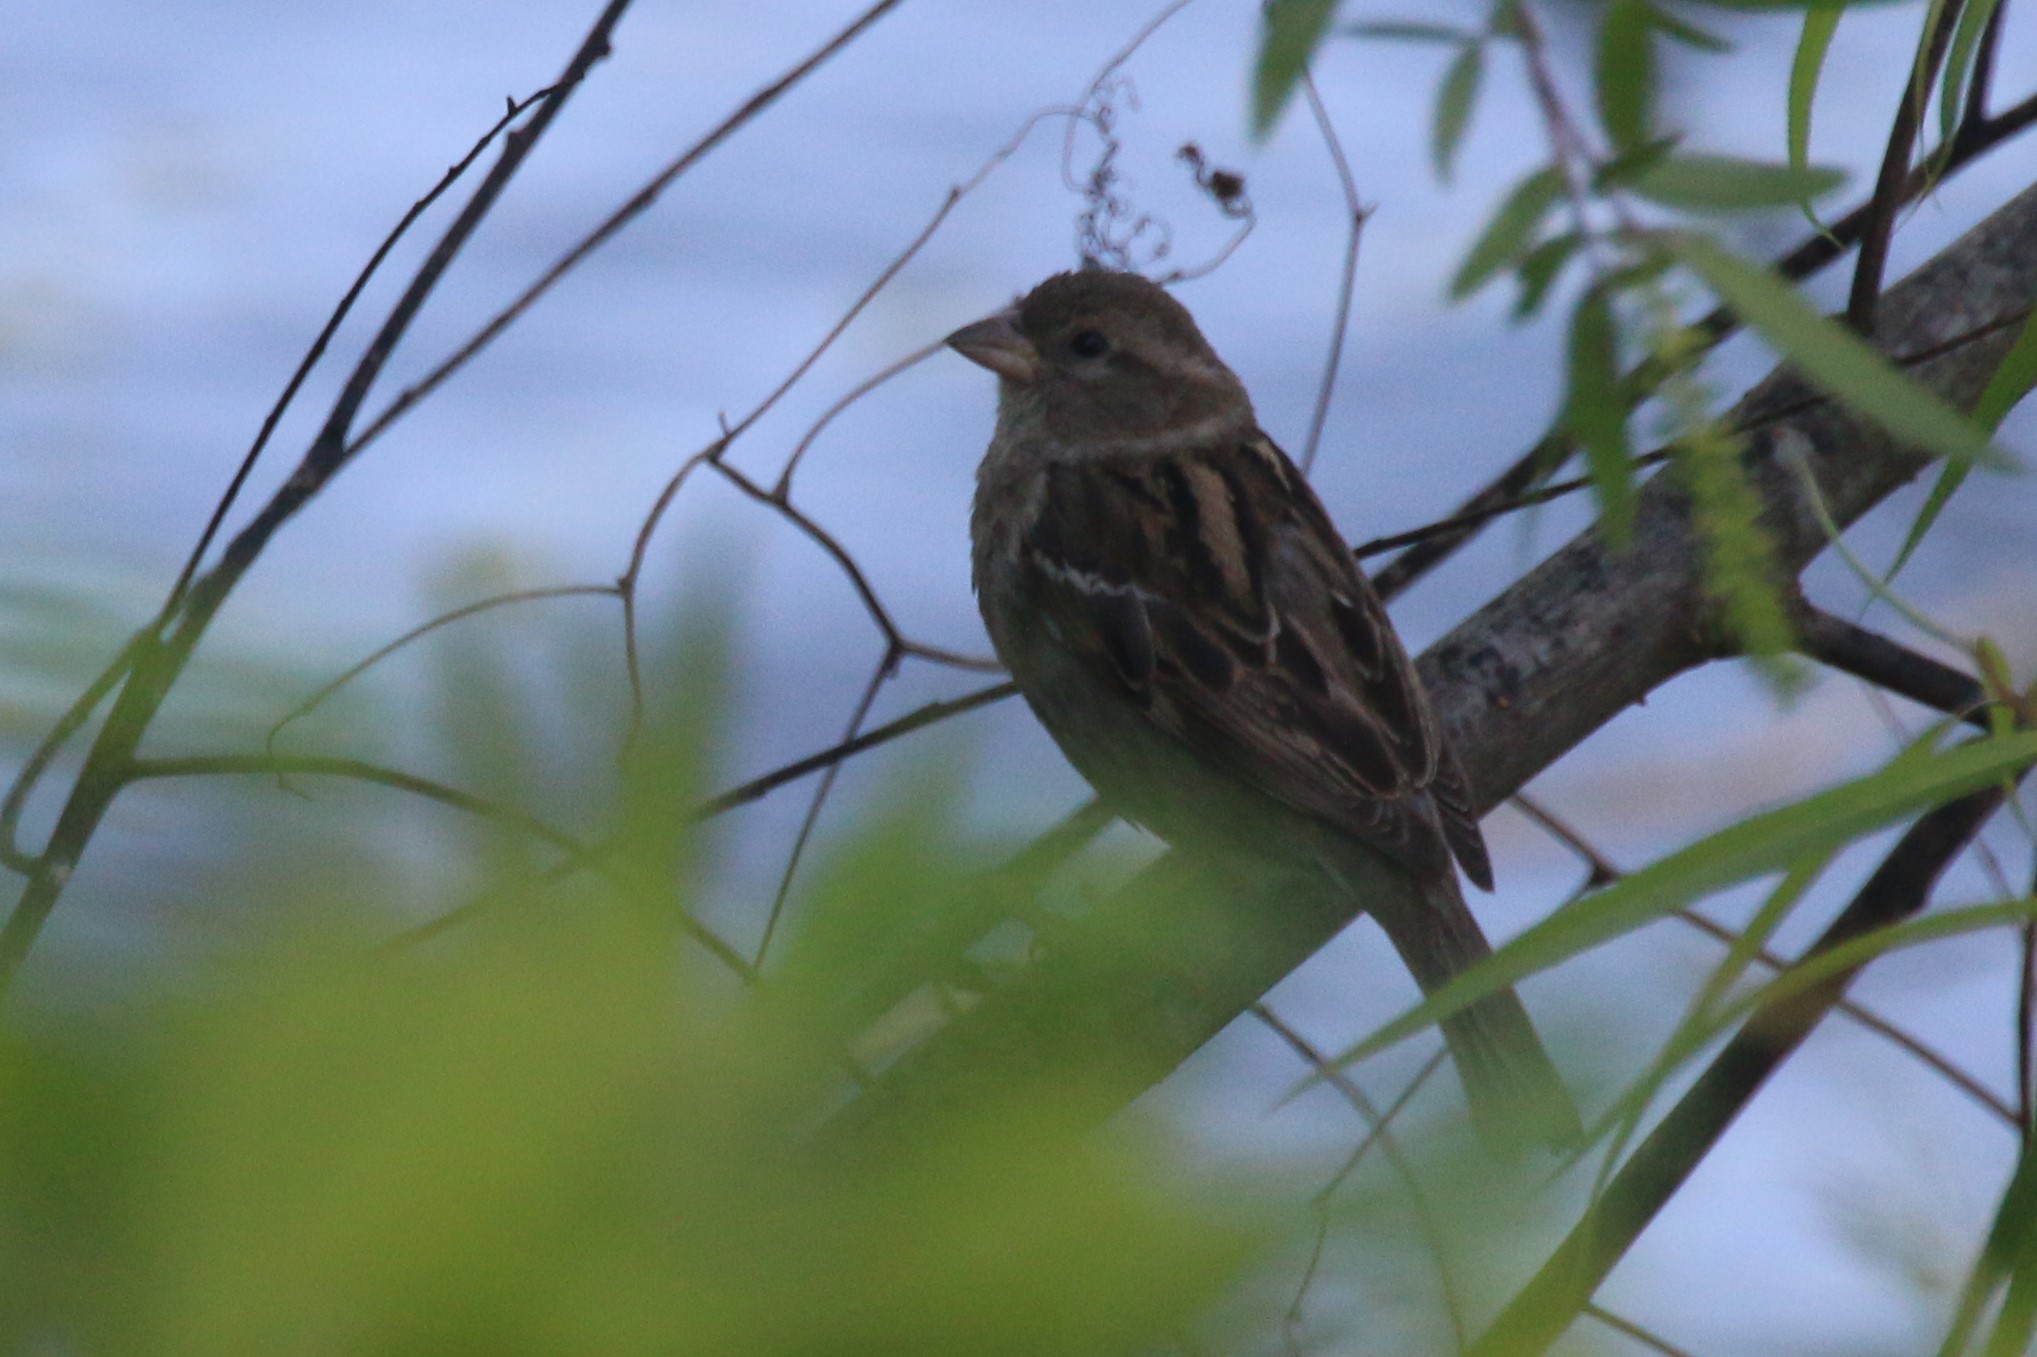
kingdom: Animalia
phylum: Chordata
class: Aves
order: Passeriformes
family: Passeridae
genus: Passer
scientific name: Passer domesticus
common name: House sparrow
